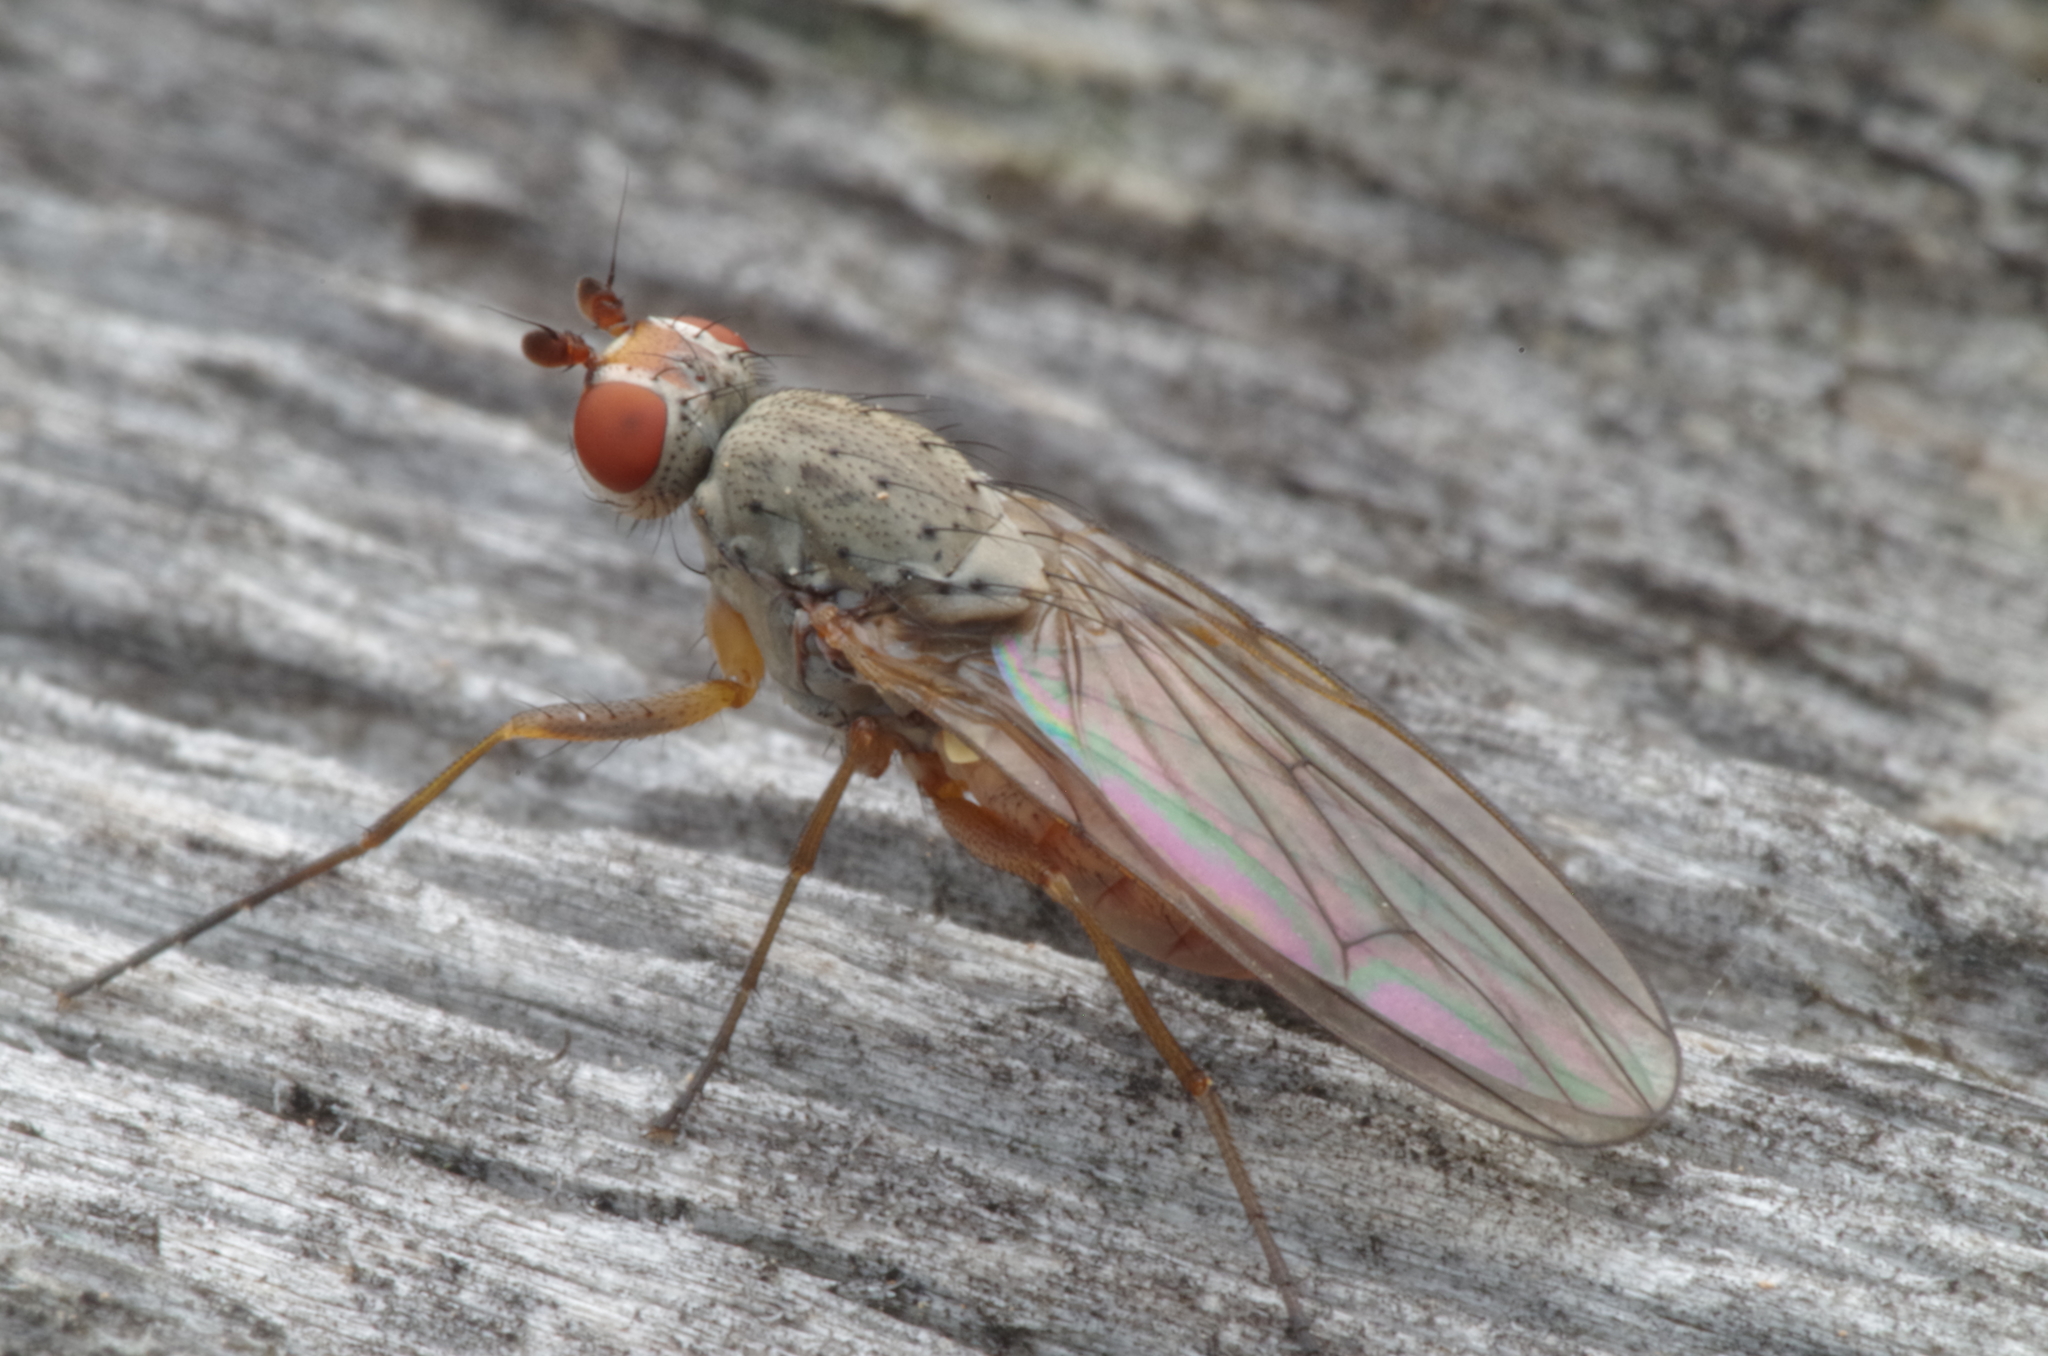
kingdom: Animalia
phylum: Arthropoda
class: Insecta
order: Diptera
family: Heleomyzidae
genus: Tephrochlamys
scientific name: Tephrochlamys rufiventris
